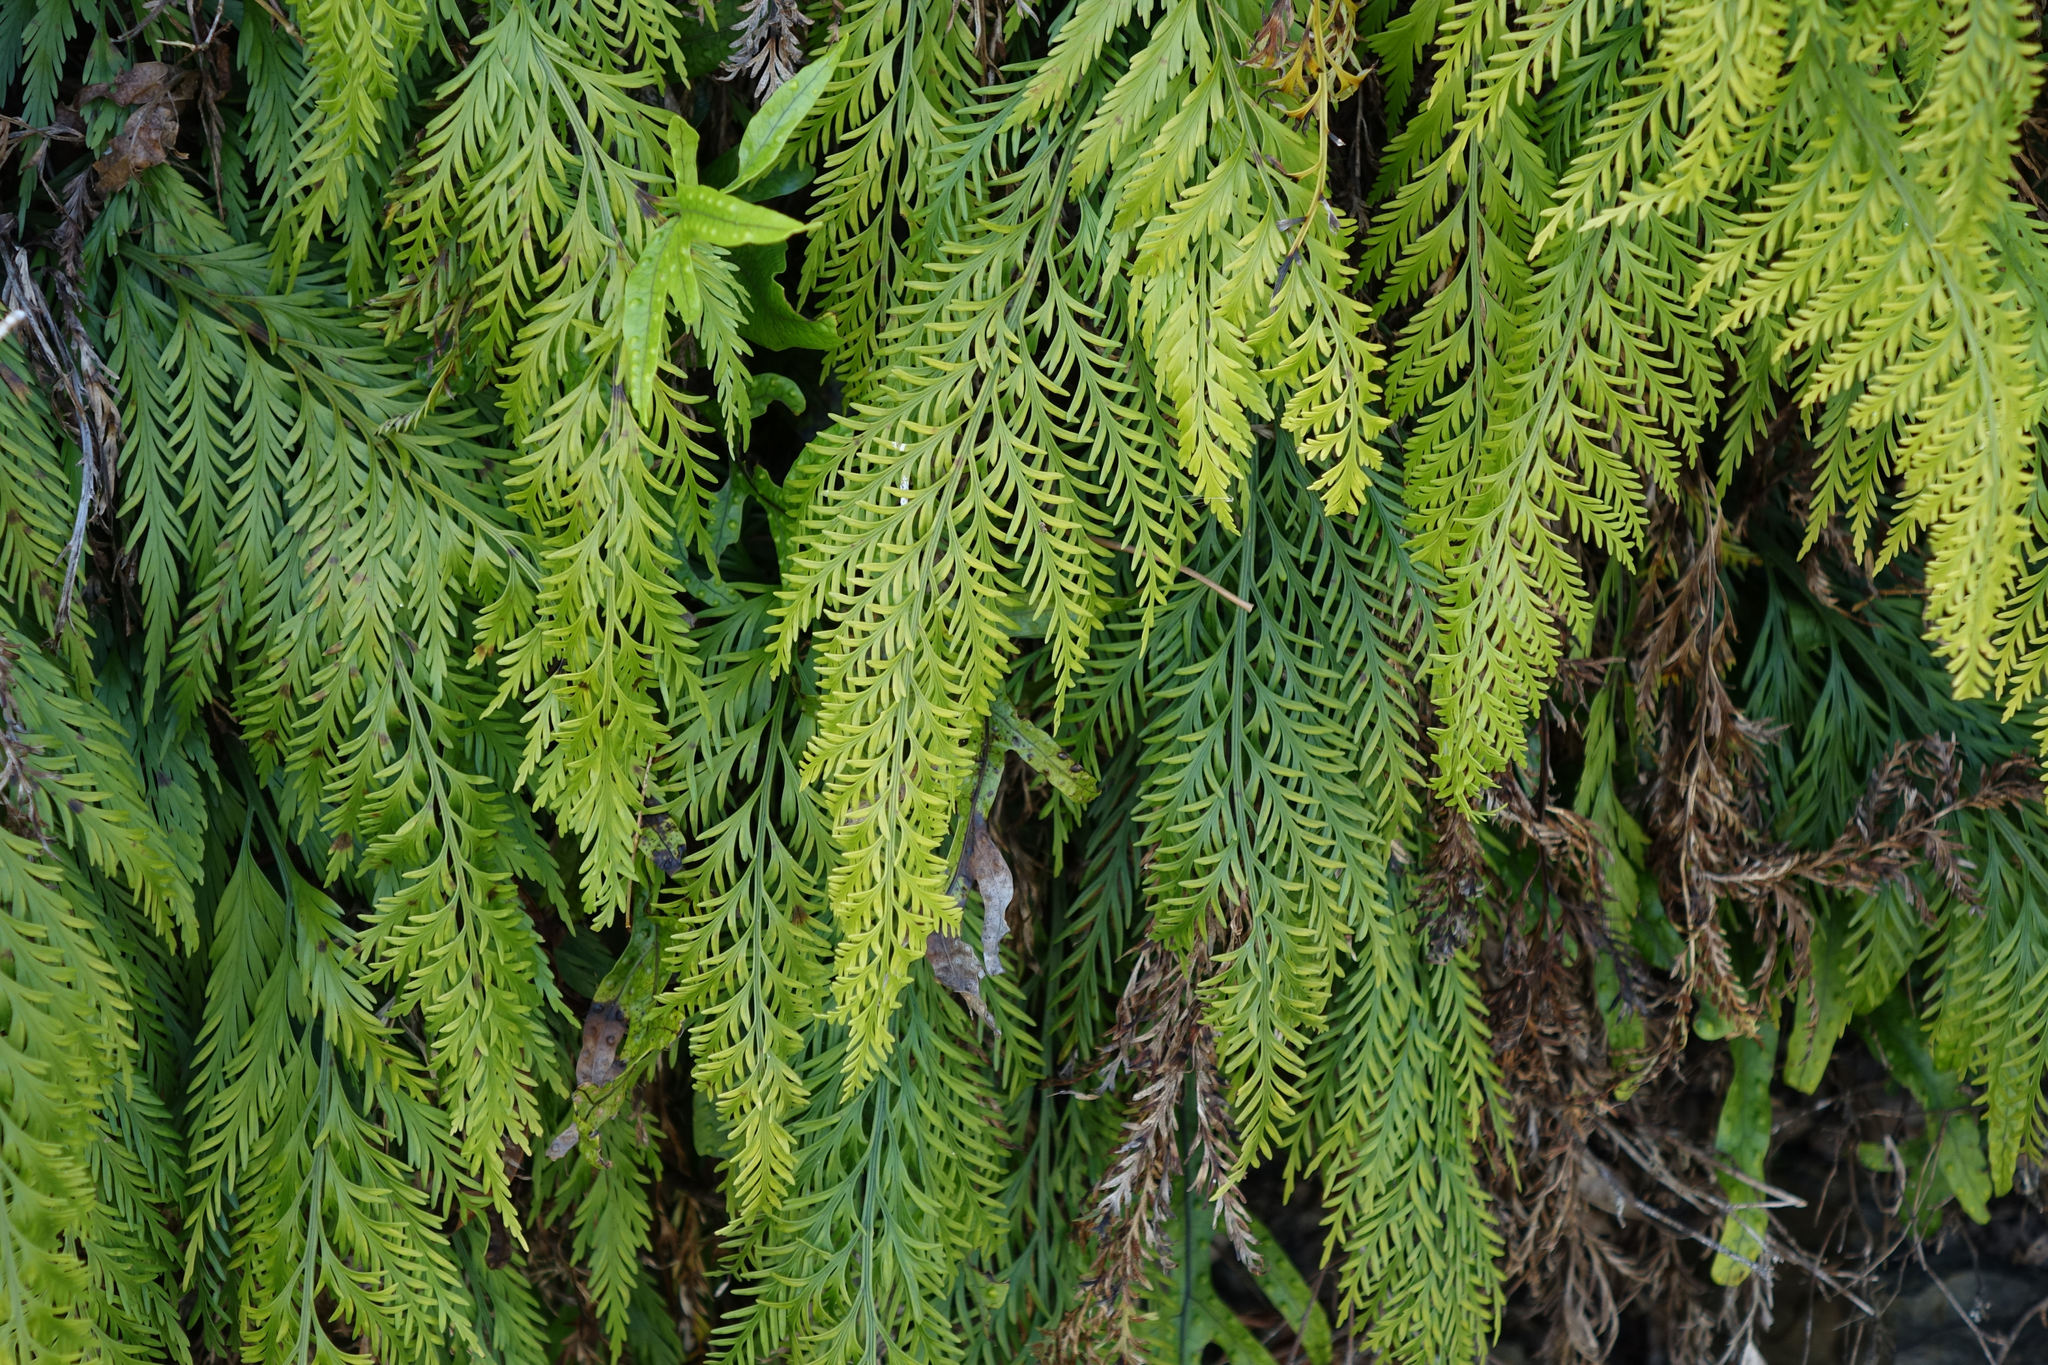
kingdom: Plantae
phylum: Tracheophyta
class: Polypodiopsida
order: Polypodiales
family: Aspleniaceae
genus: Asplenium
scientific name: Asplenium appendiculatum
